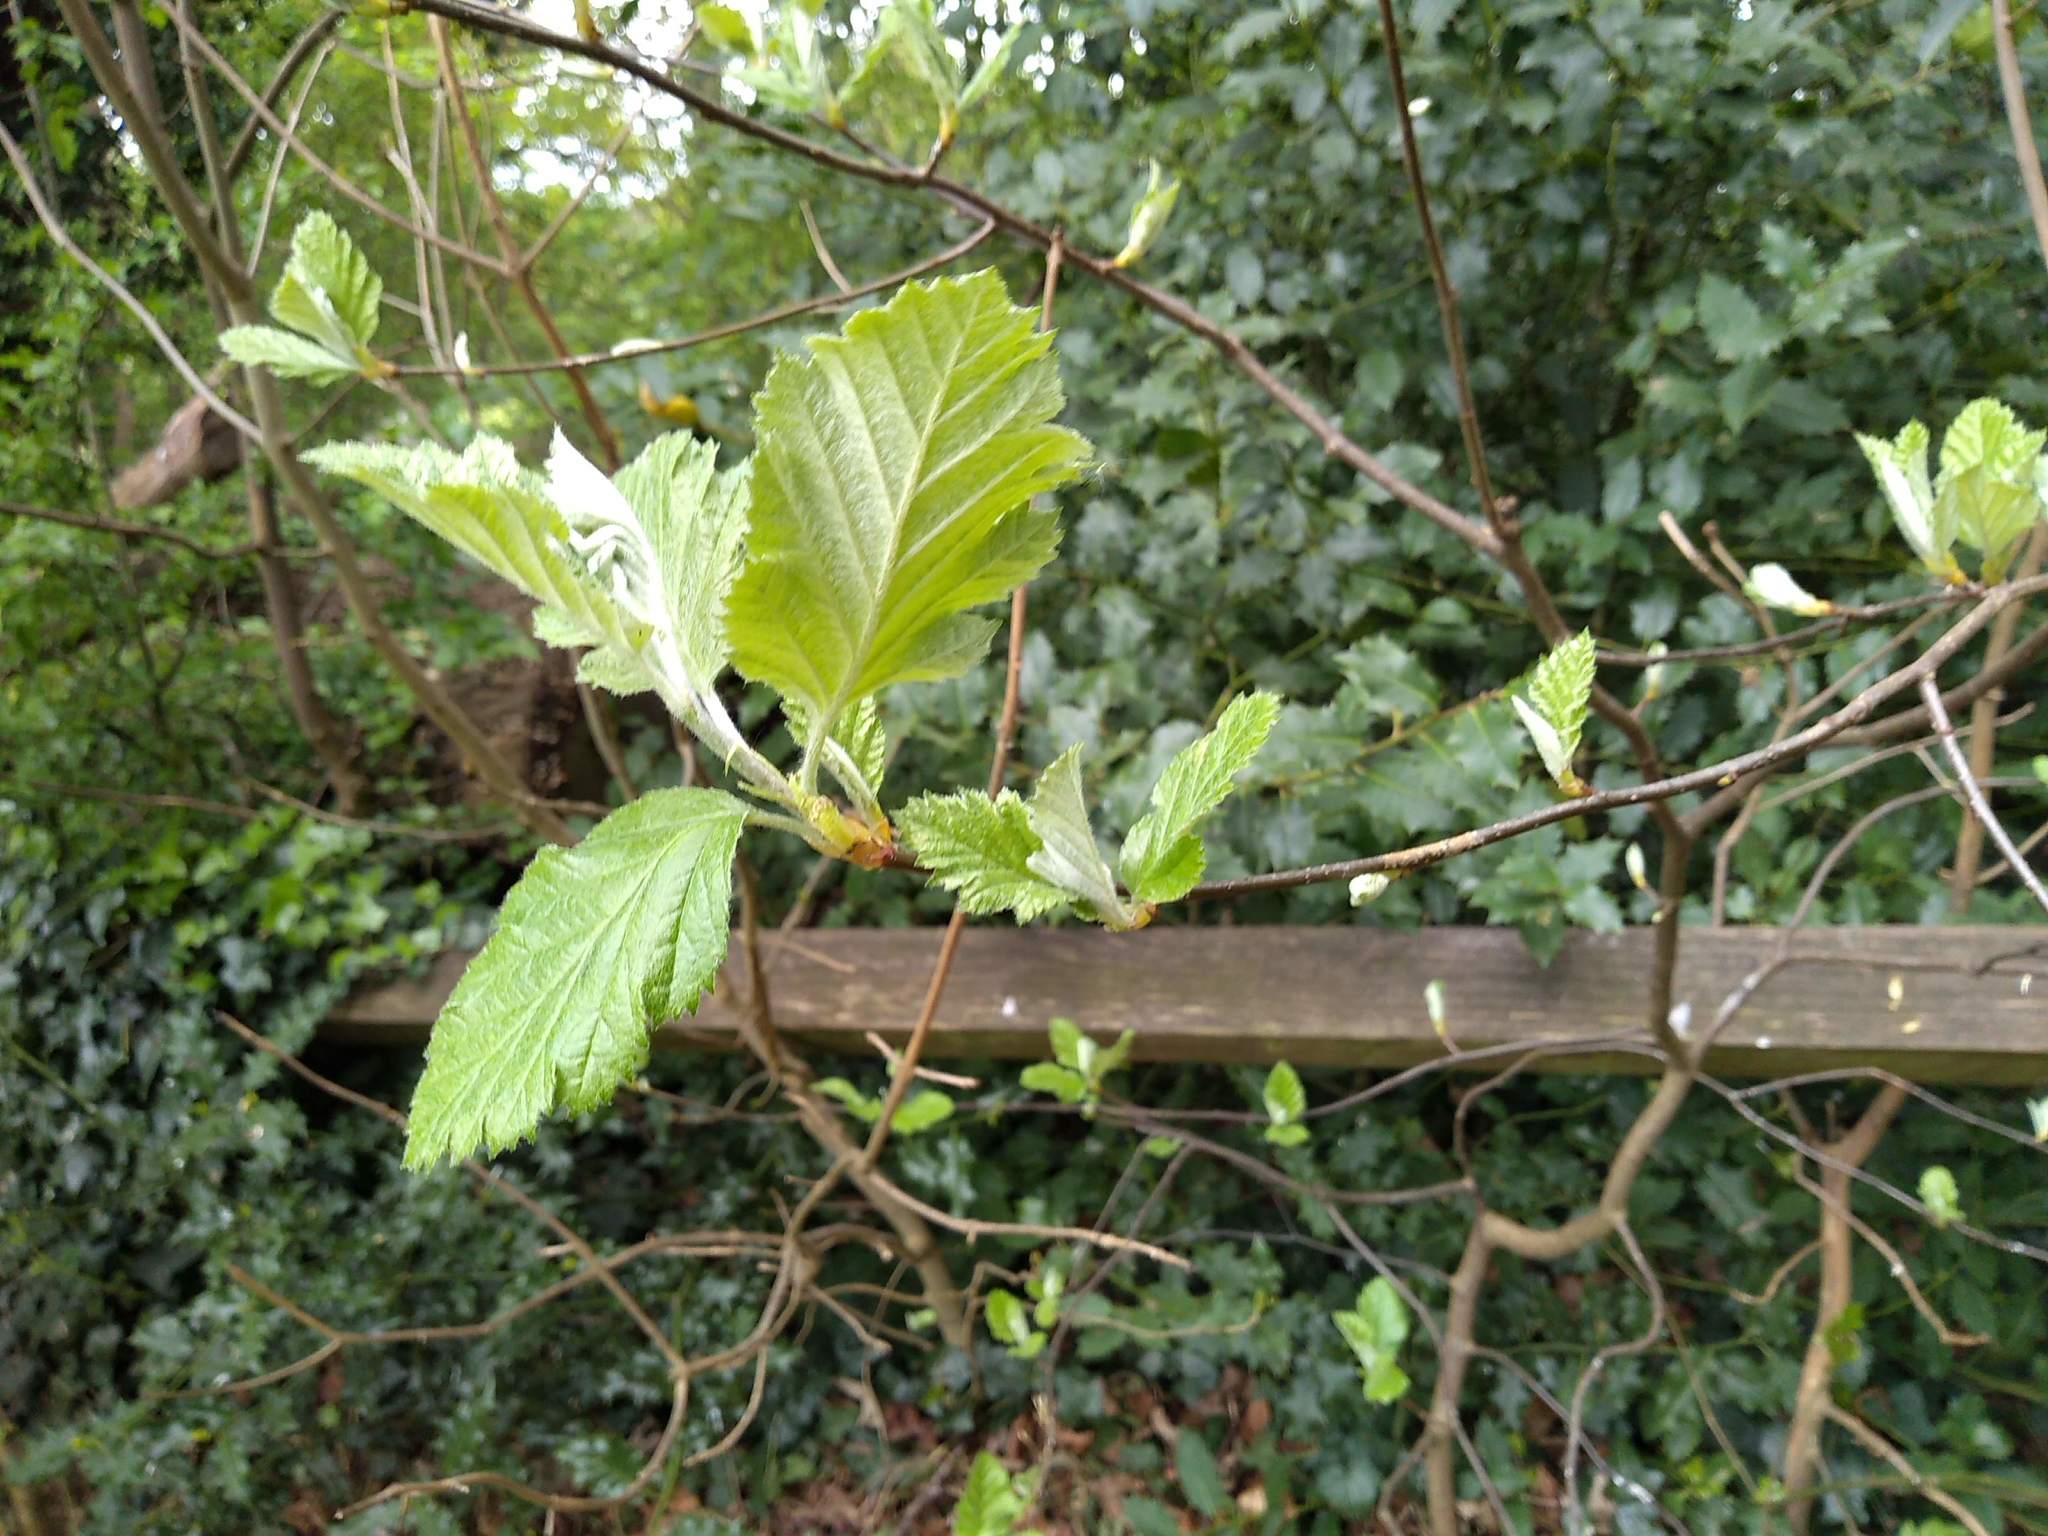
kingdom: Plantae
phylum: Tracheophyta
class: Magnoliopsida
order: Rosales
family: Rosaceae
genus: Scandosorbus
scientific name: Scandosorbus intermedia
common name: Swedish whitebeam
